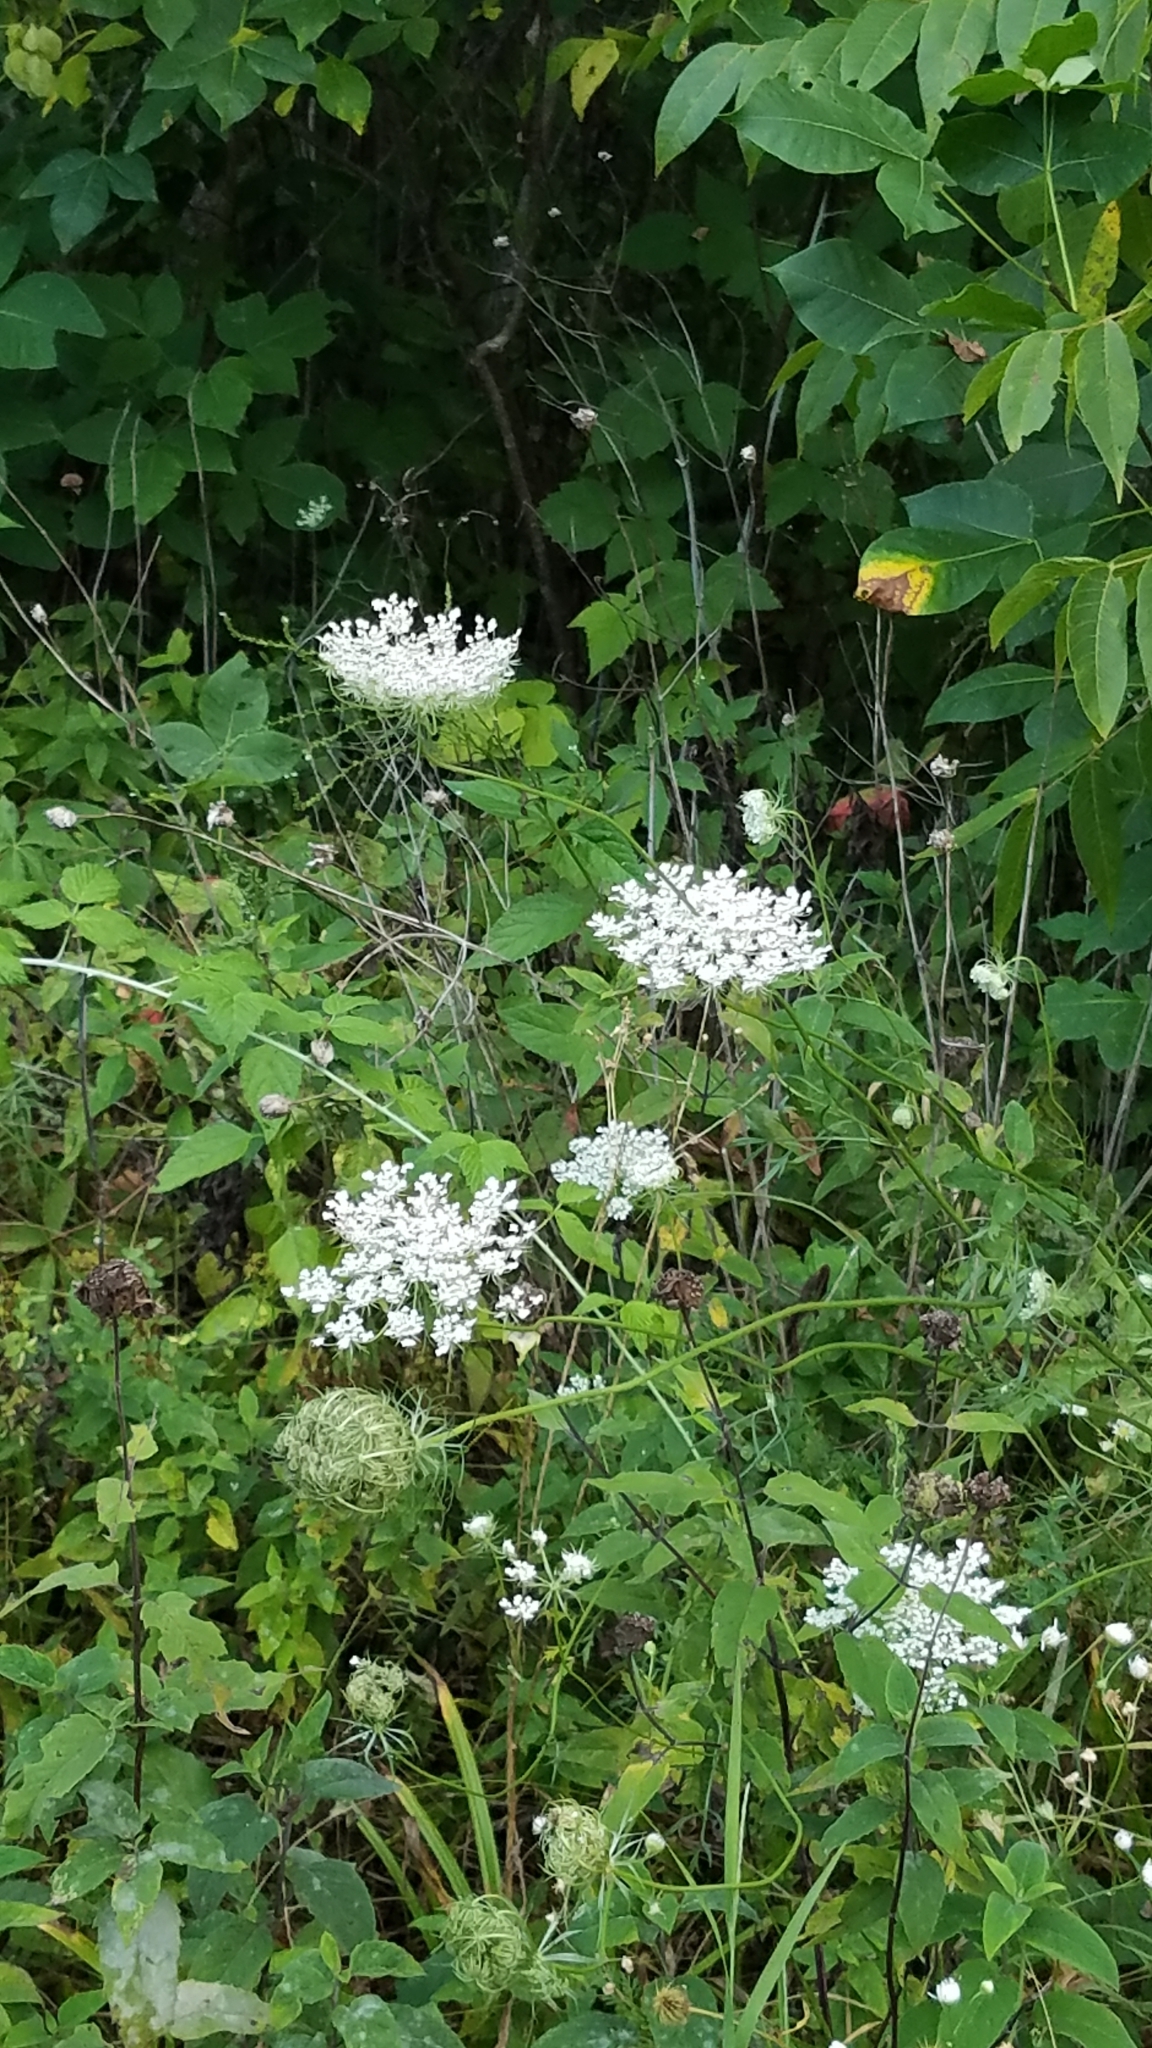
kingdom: Plantae
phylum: Tracheophyta
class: Magnoliopsida
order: Apiales
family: Apiaceae
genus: Daucus
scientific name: Daucus carota
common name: Wild carrot
